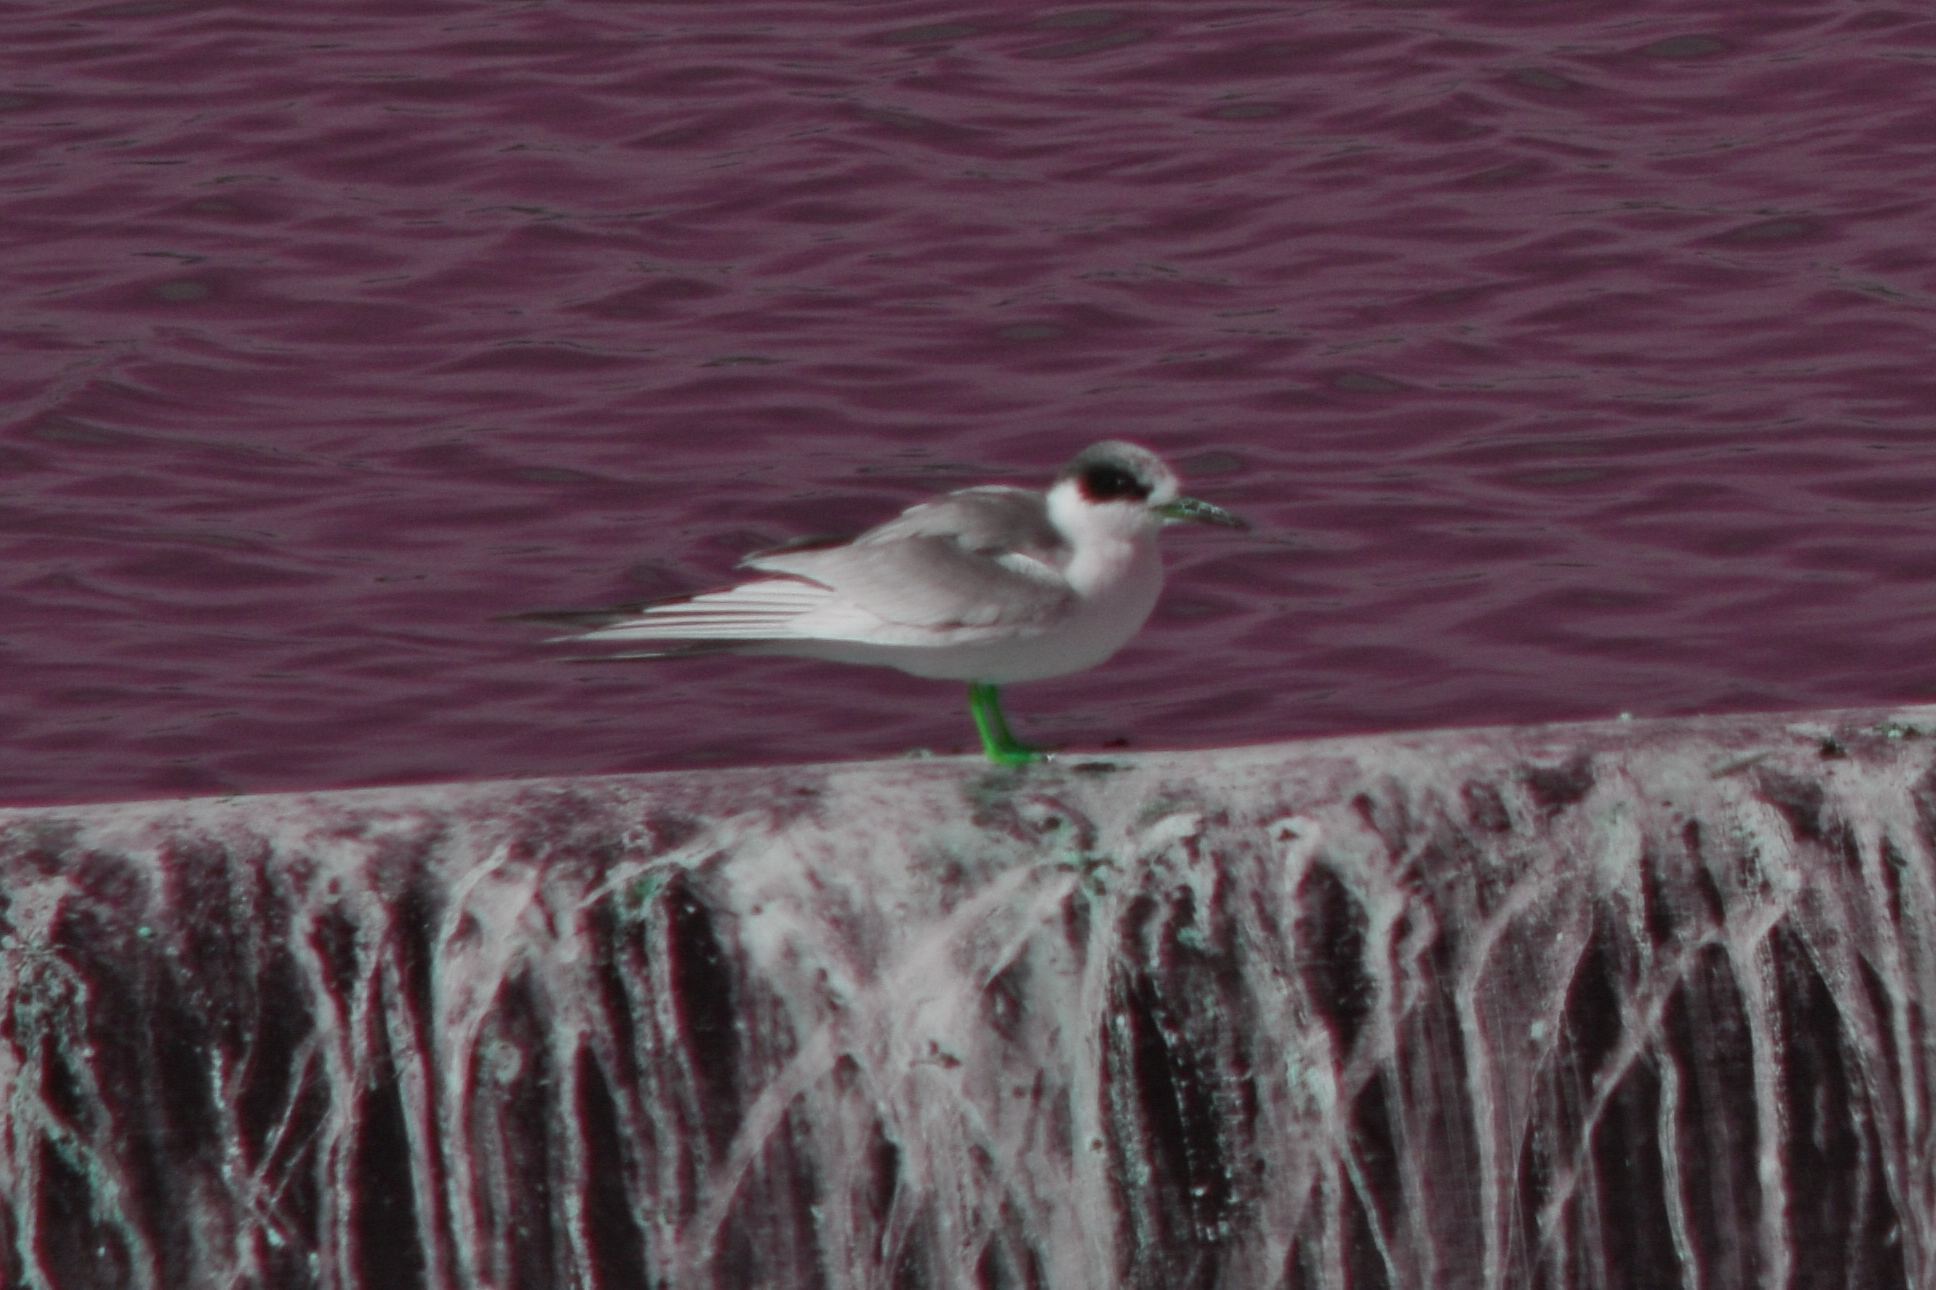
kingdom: Animalia
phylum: Chordata
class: Aves
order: Charadriiformes
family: Laridae
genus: Sterna
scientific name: Sterna forsteri
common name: Forster's tern
